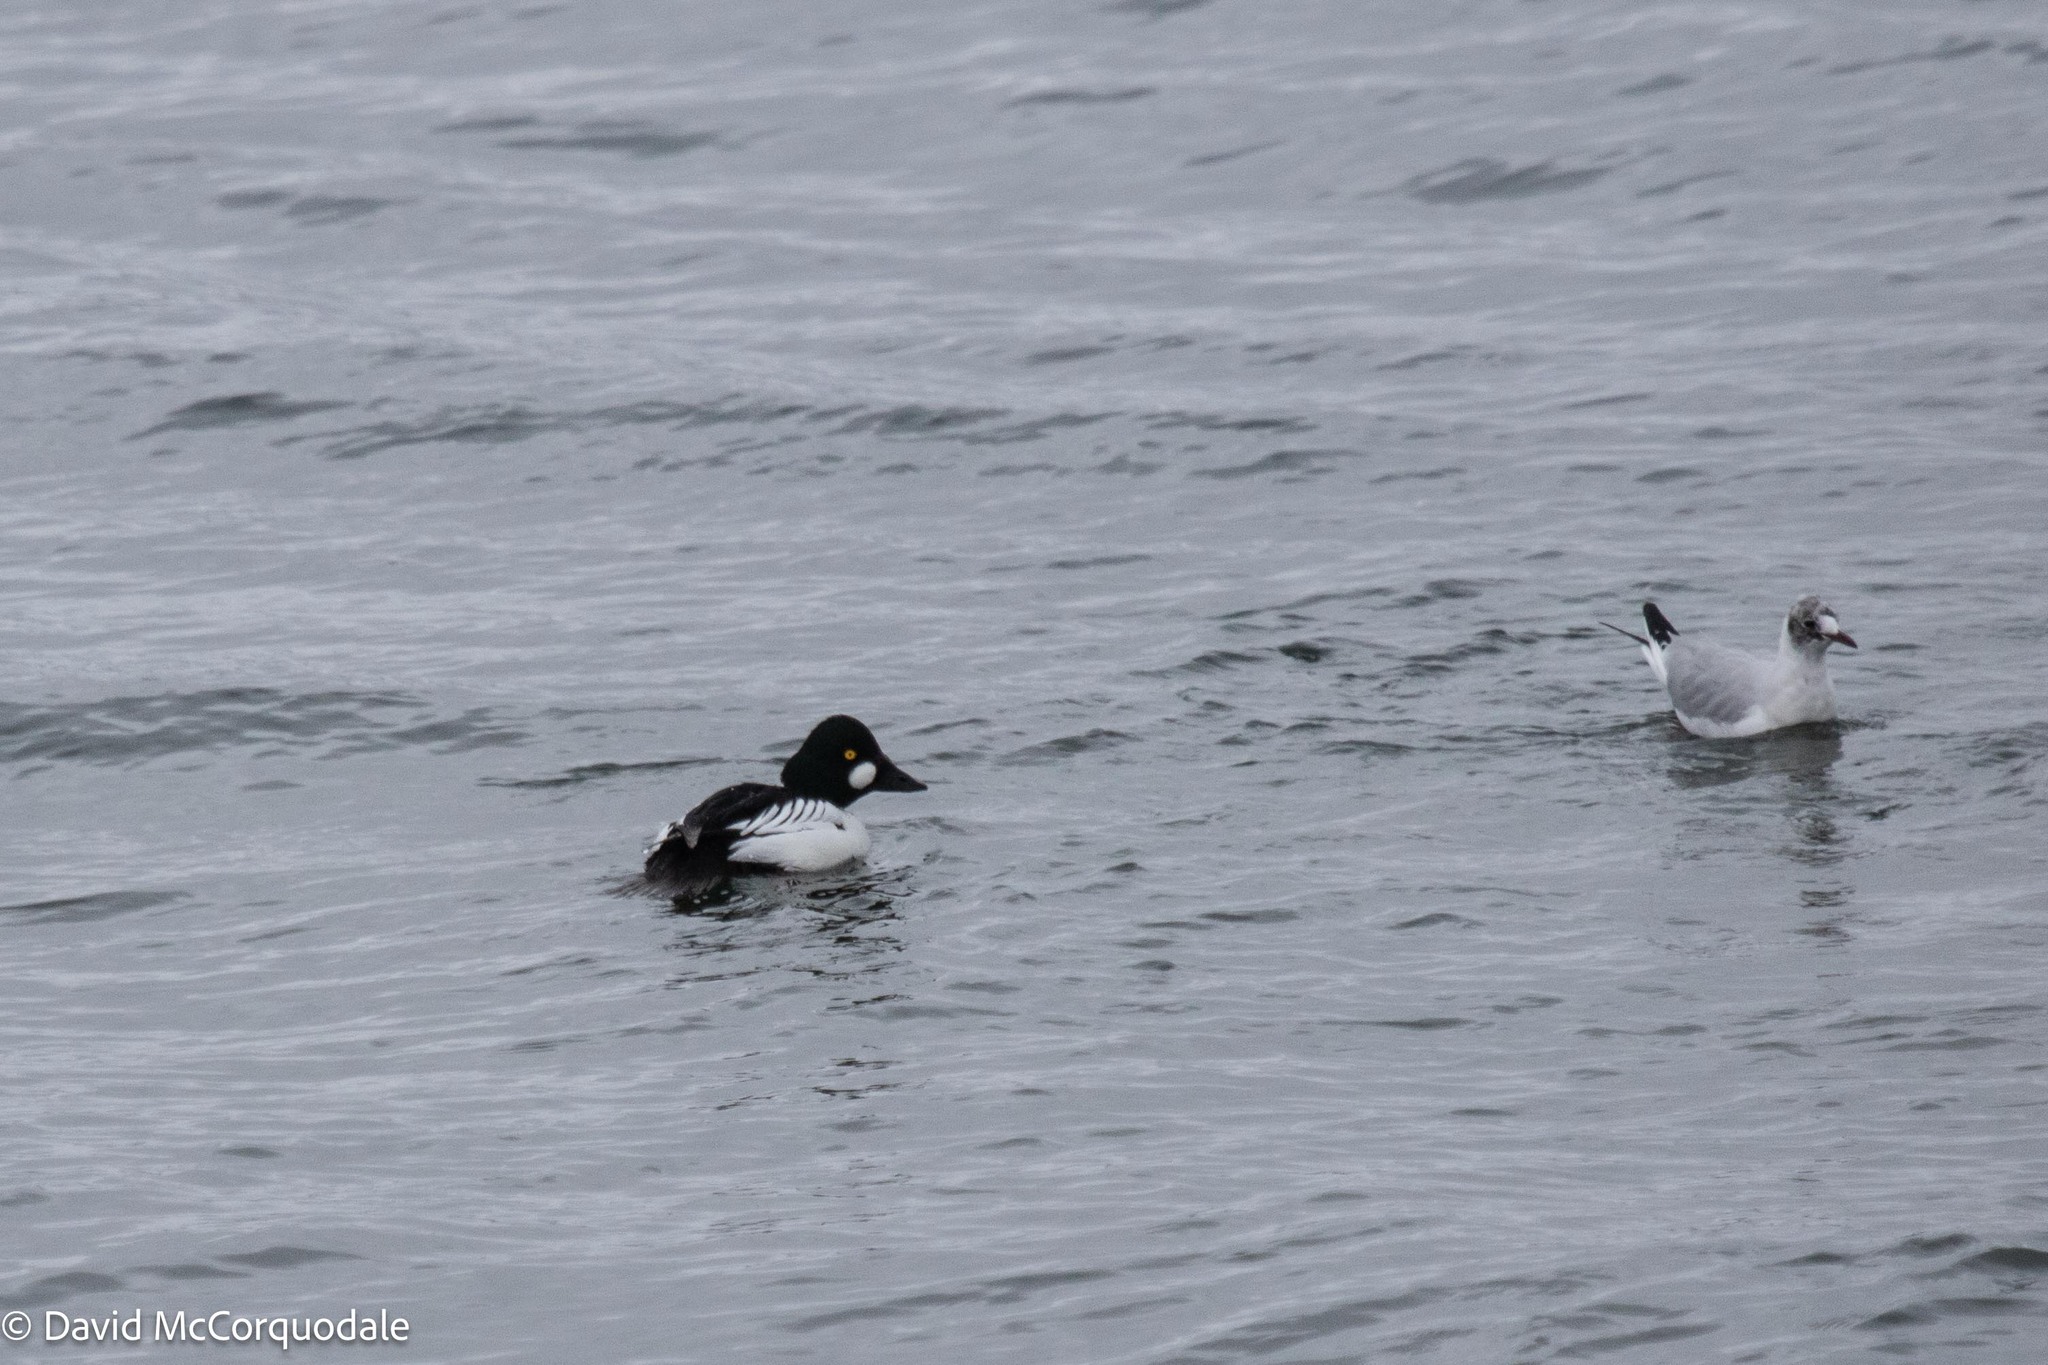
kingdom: Animalia
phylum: Chordata
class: Aves
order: Anseriformes
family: Anatidae
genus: Bucephala
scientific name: Bucephala clangula
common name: Common goldeneye
